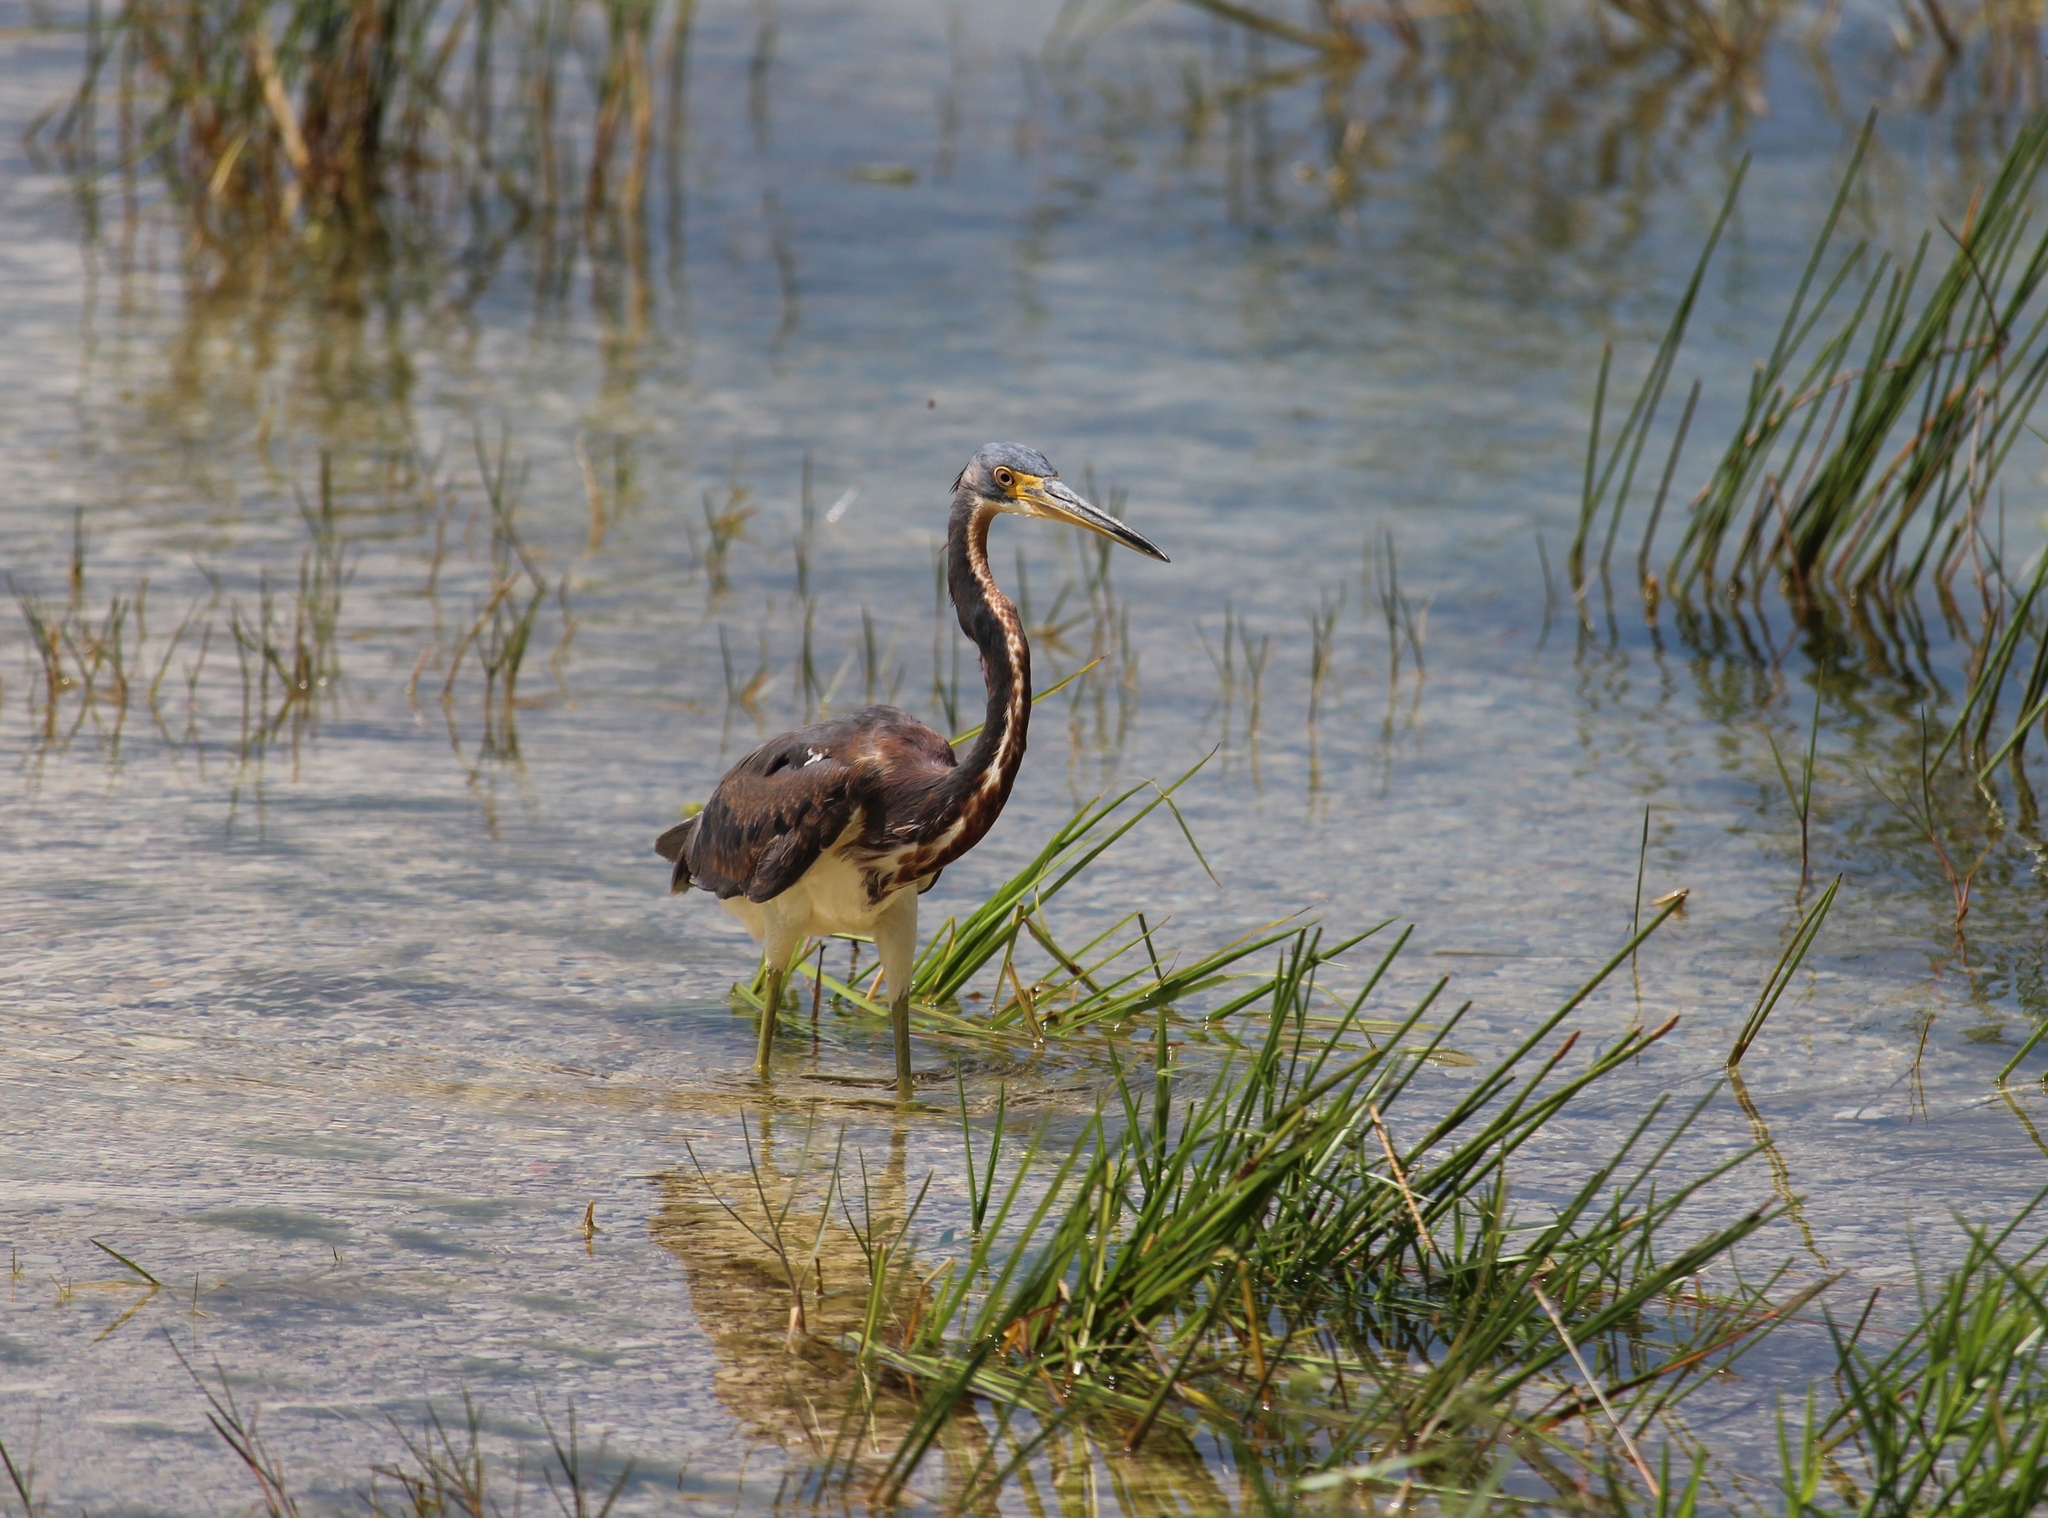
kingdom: Animalia
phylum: Chordata
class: Aves
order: Pelecaniformes
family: Ardeidae
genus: Egretta
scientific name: Egretta tricolor
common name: Tricolored heron
